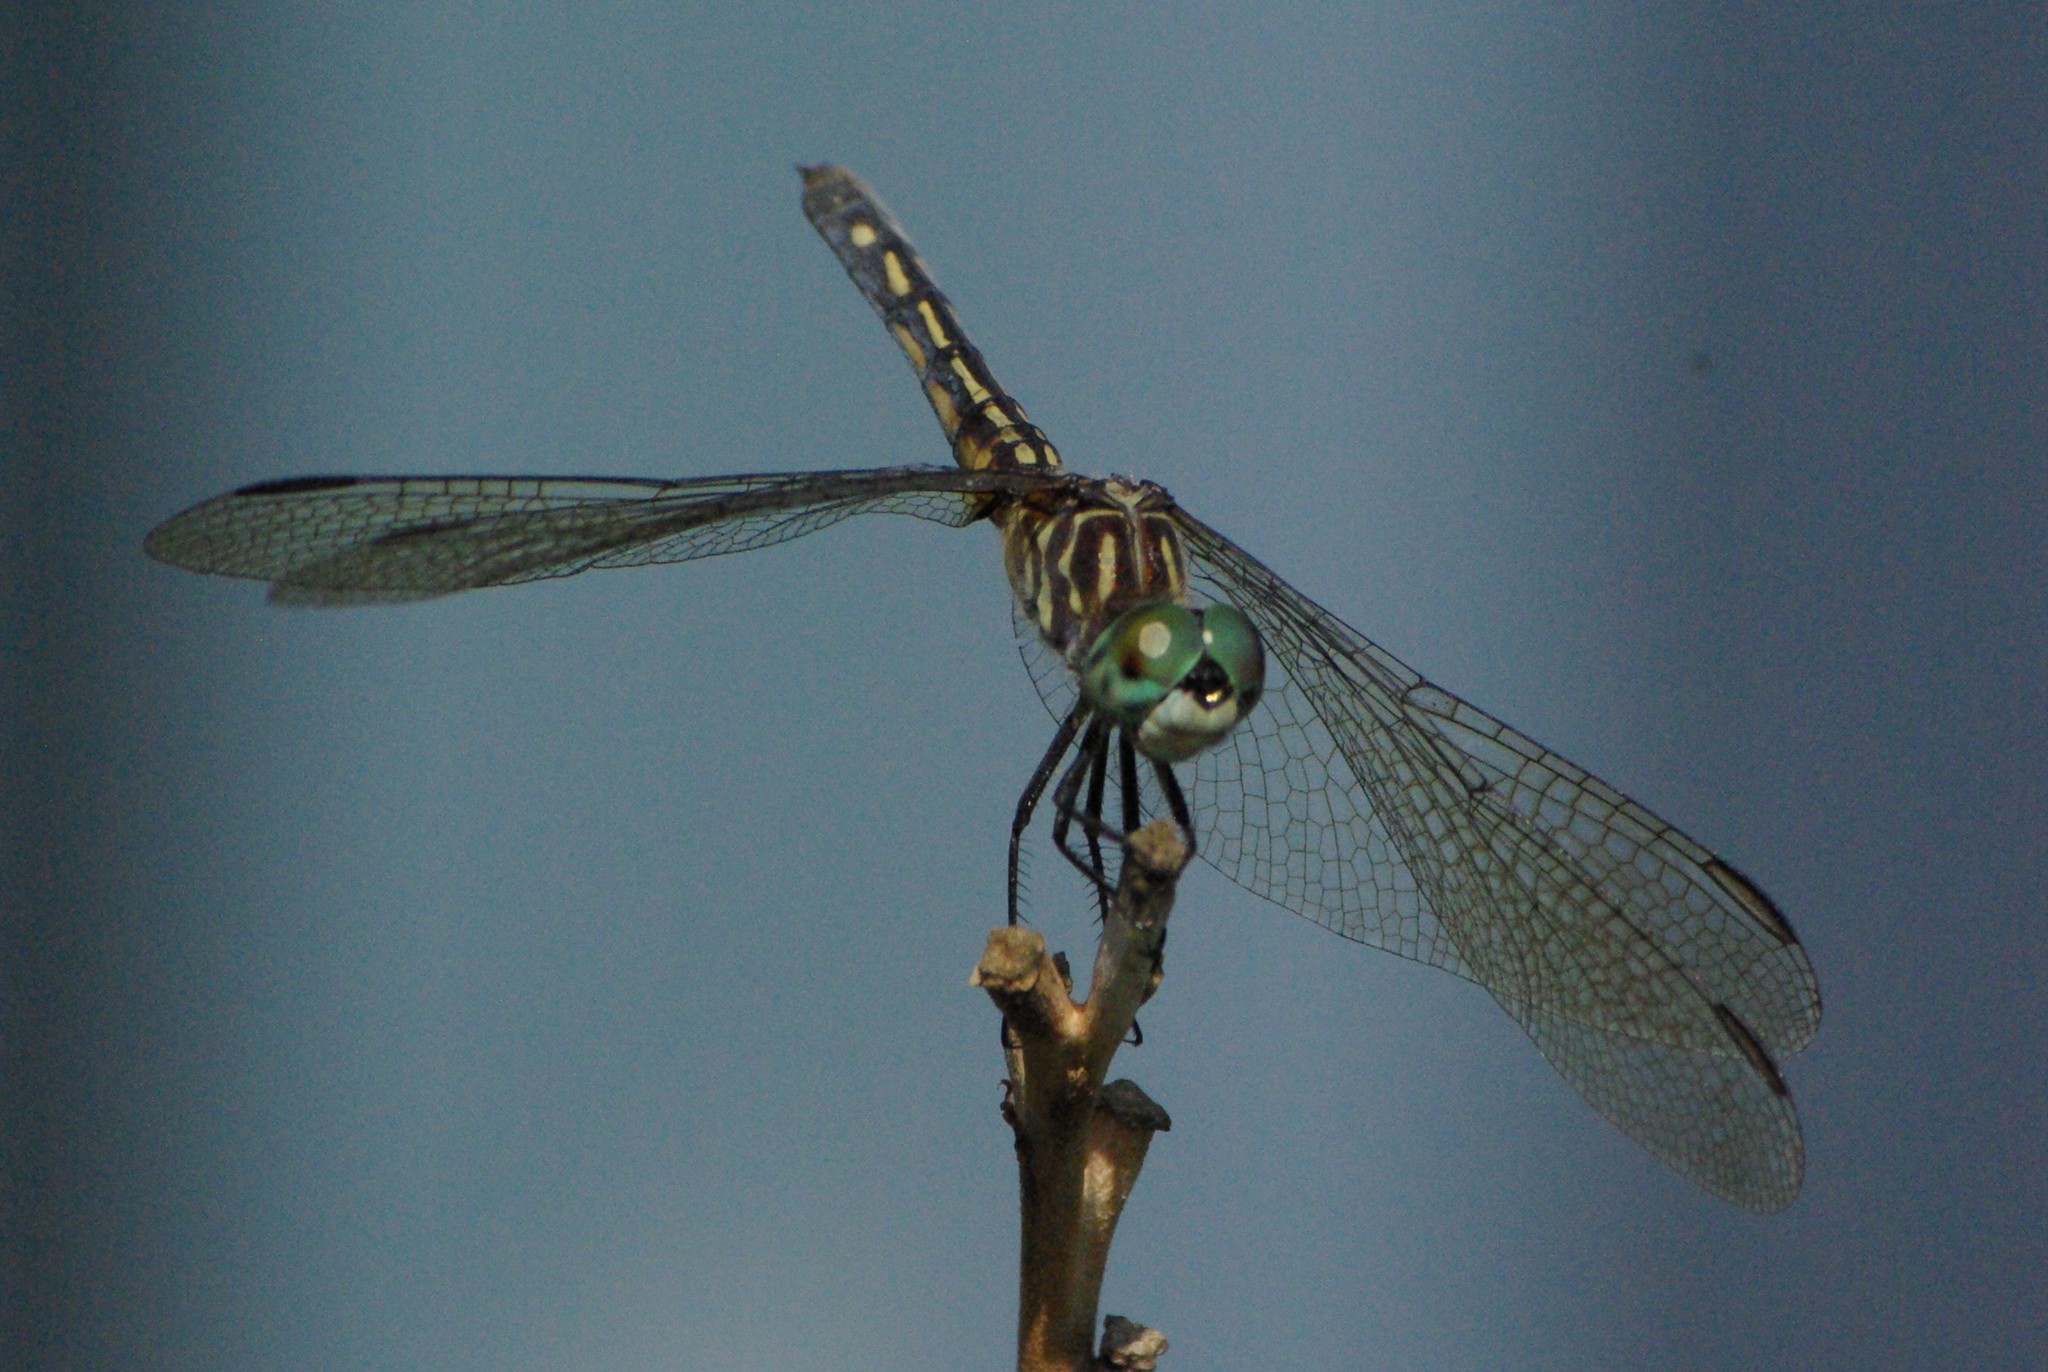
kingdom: Animalia
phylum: Arthropoda
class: Insecta
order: Odonata
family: Libellulidae
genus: Pachydiplax
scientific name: Pachydiplax longipennis
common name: Blue dasher
